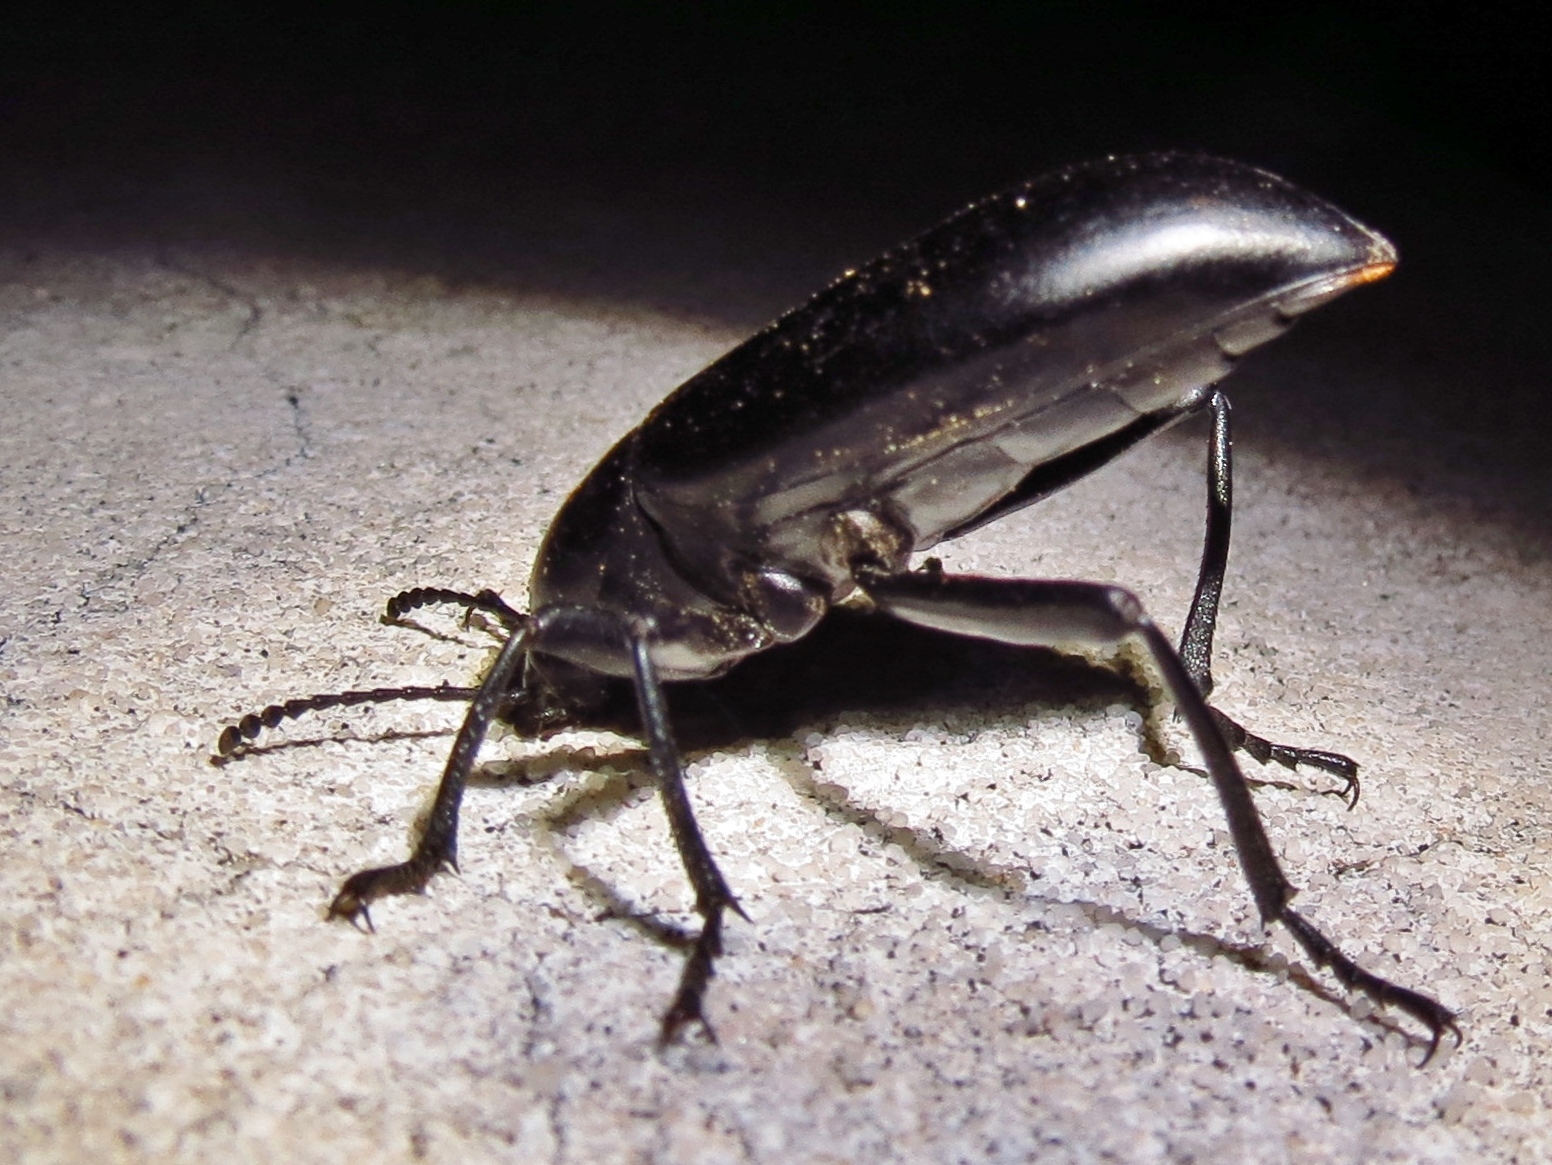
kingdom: Animalia
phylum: Arthropoda
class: Insecta
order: Coleoptera
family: Tenebrionidae
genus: Eleodes
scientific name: Eleodes longicollis
